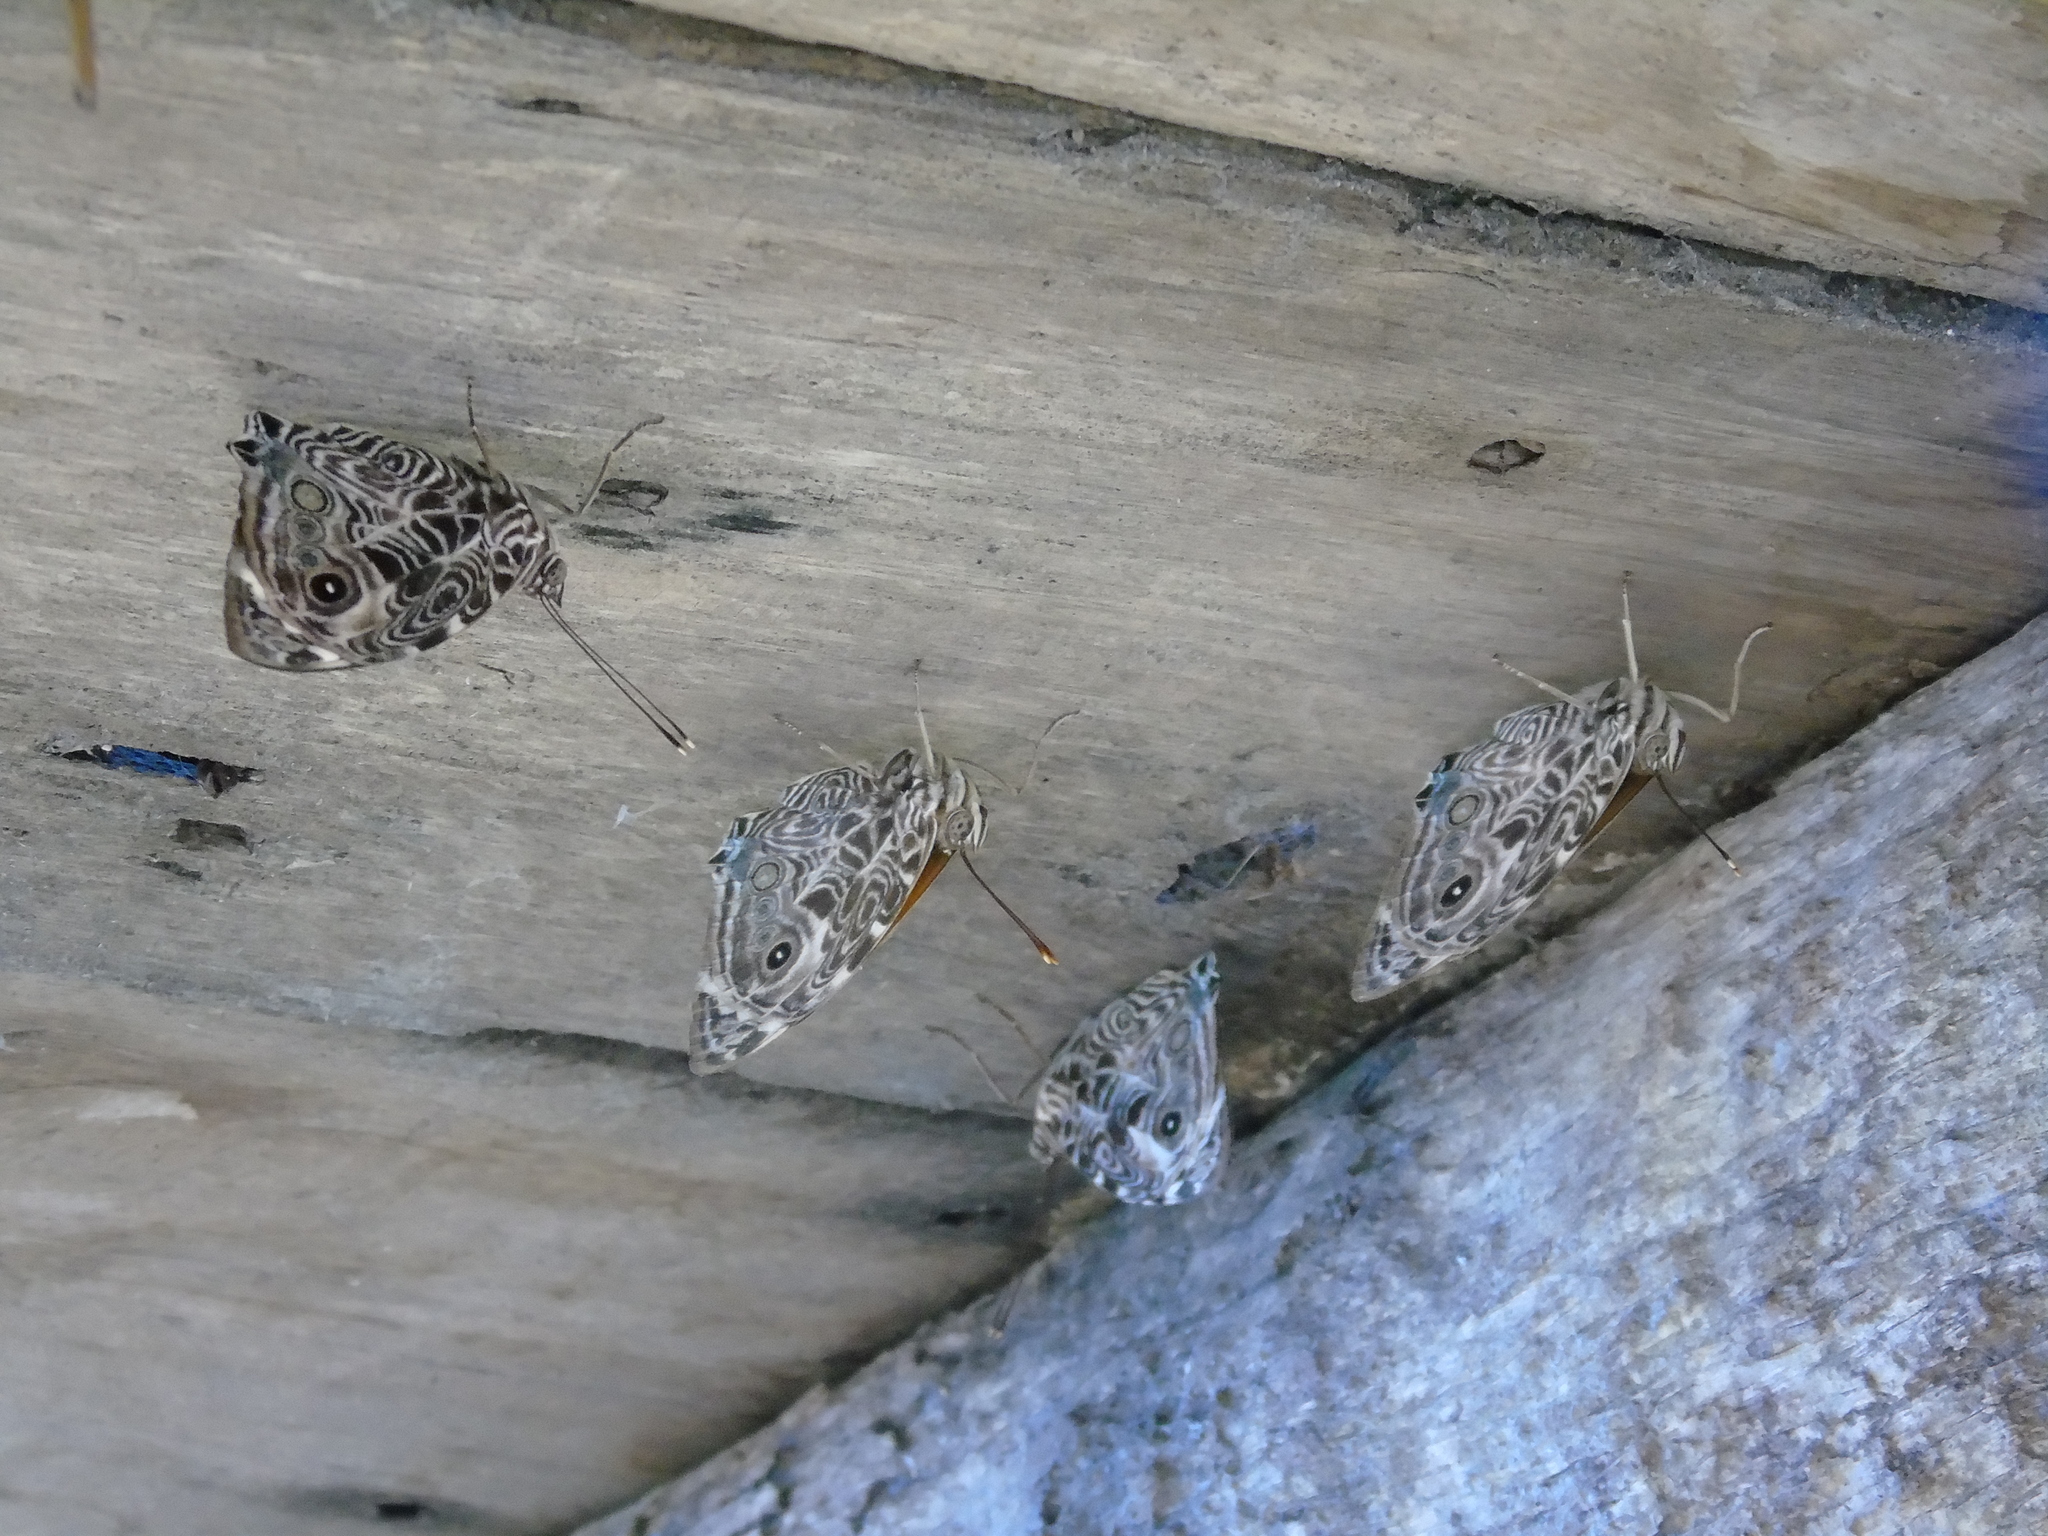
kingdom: Animalia
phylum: Arthropoda
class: Insecta
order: Lepidoptera
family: Nymphalidae
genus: Smyrna
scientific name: Smyrna blomfildia
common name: Blomfild's beauty
